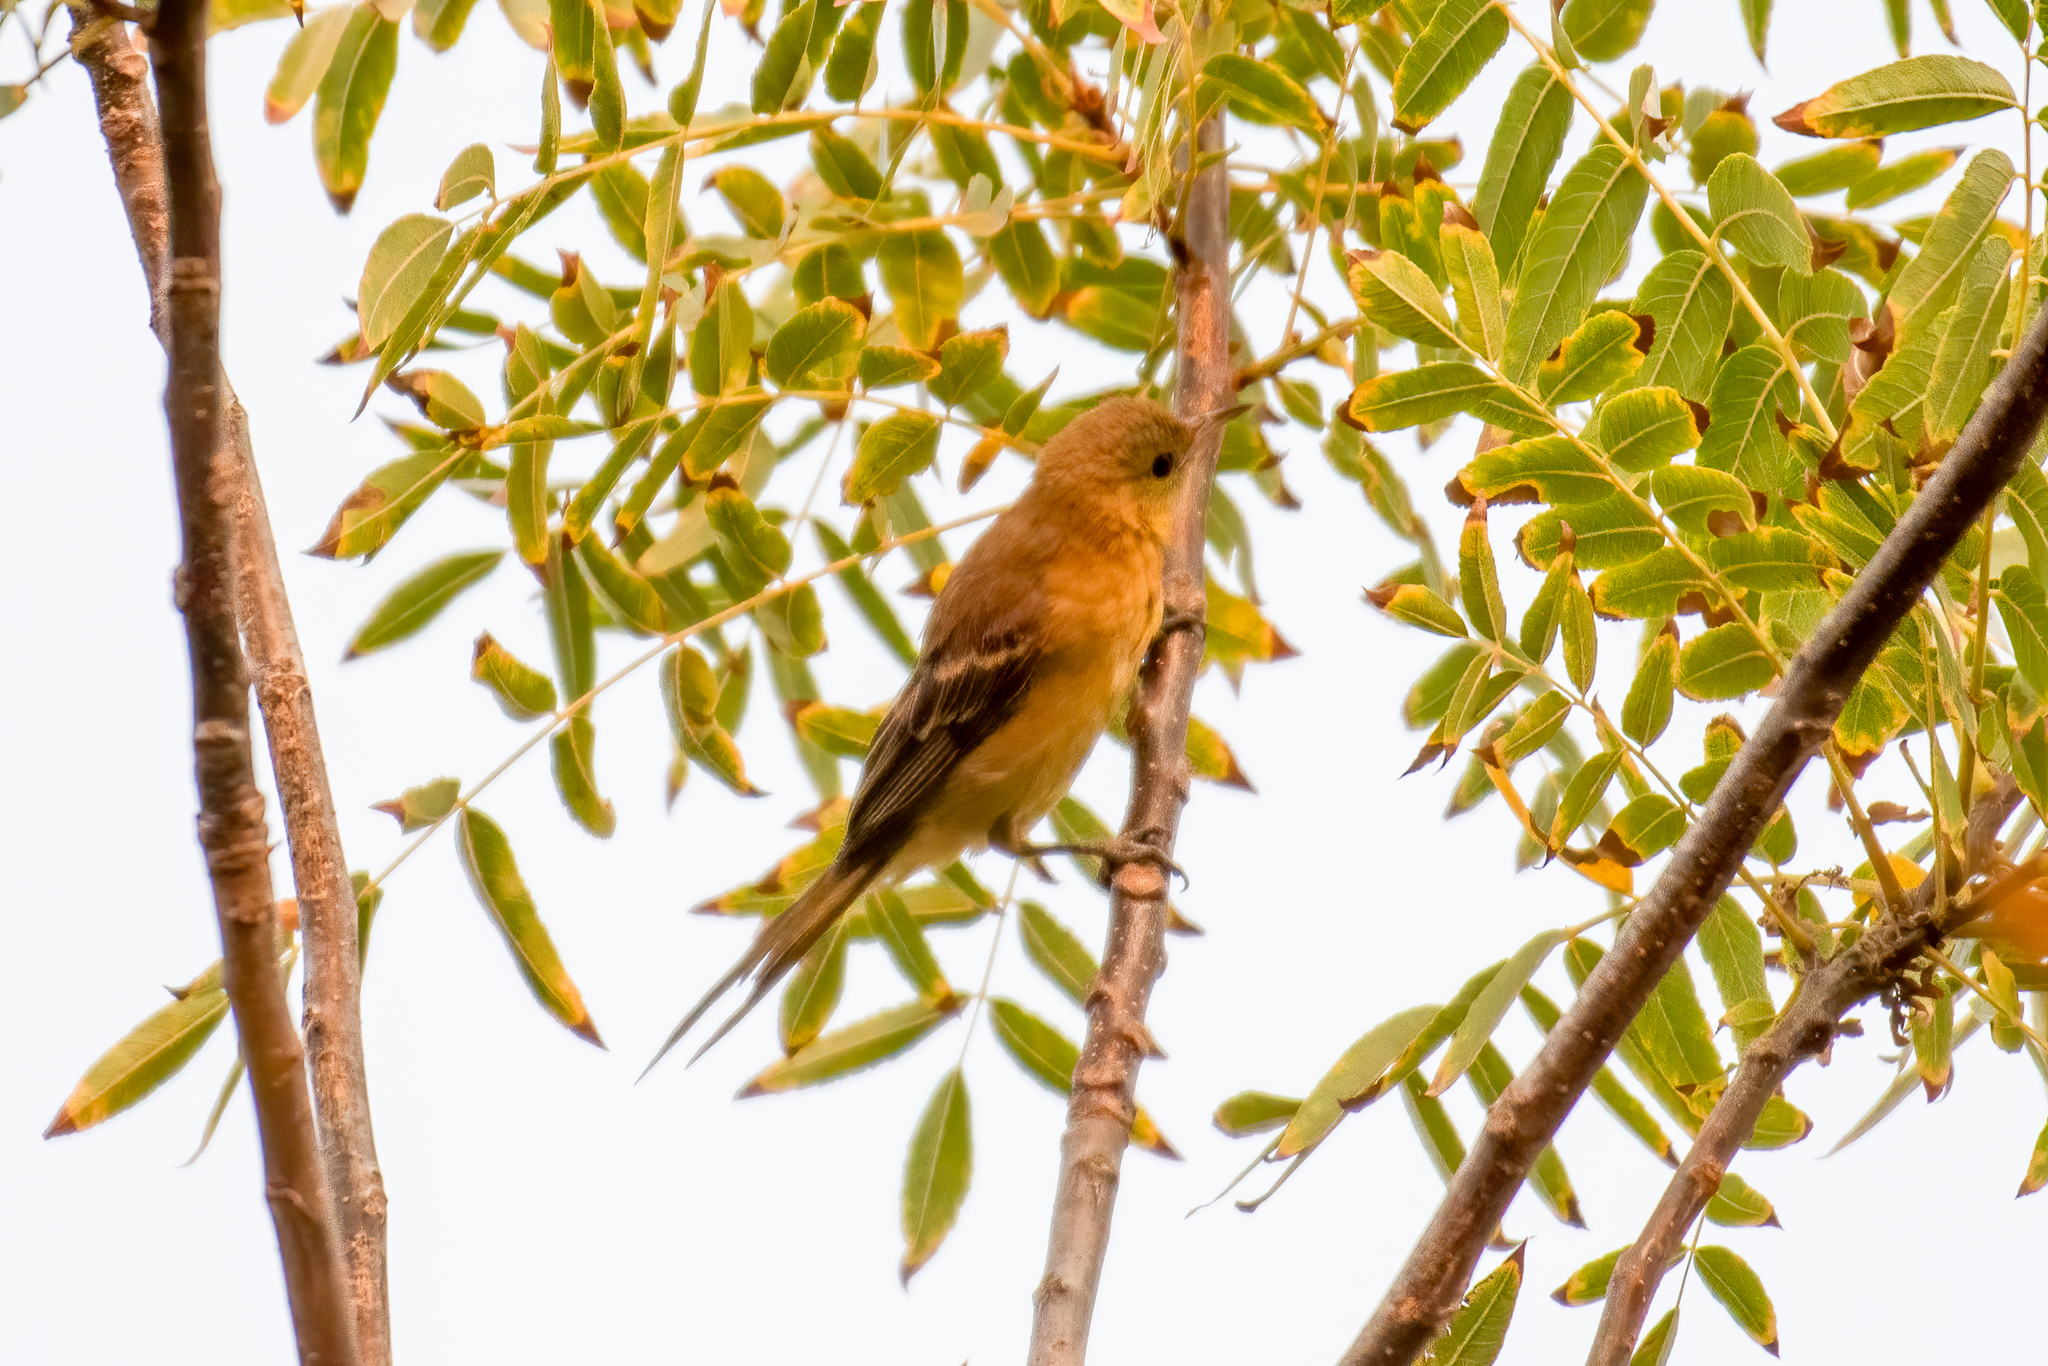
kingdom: Animalia
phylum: Chordata
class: Aves
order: Passeriformes
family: Icteridae
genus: Icterus
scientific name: Icterus cucullatus
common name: Hooded oriole
